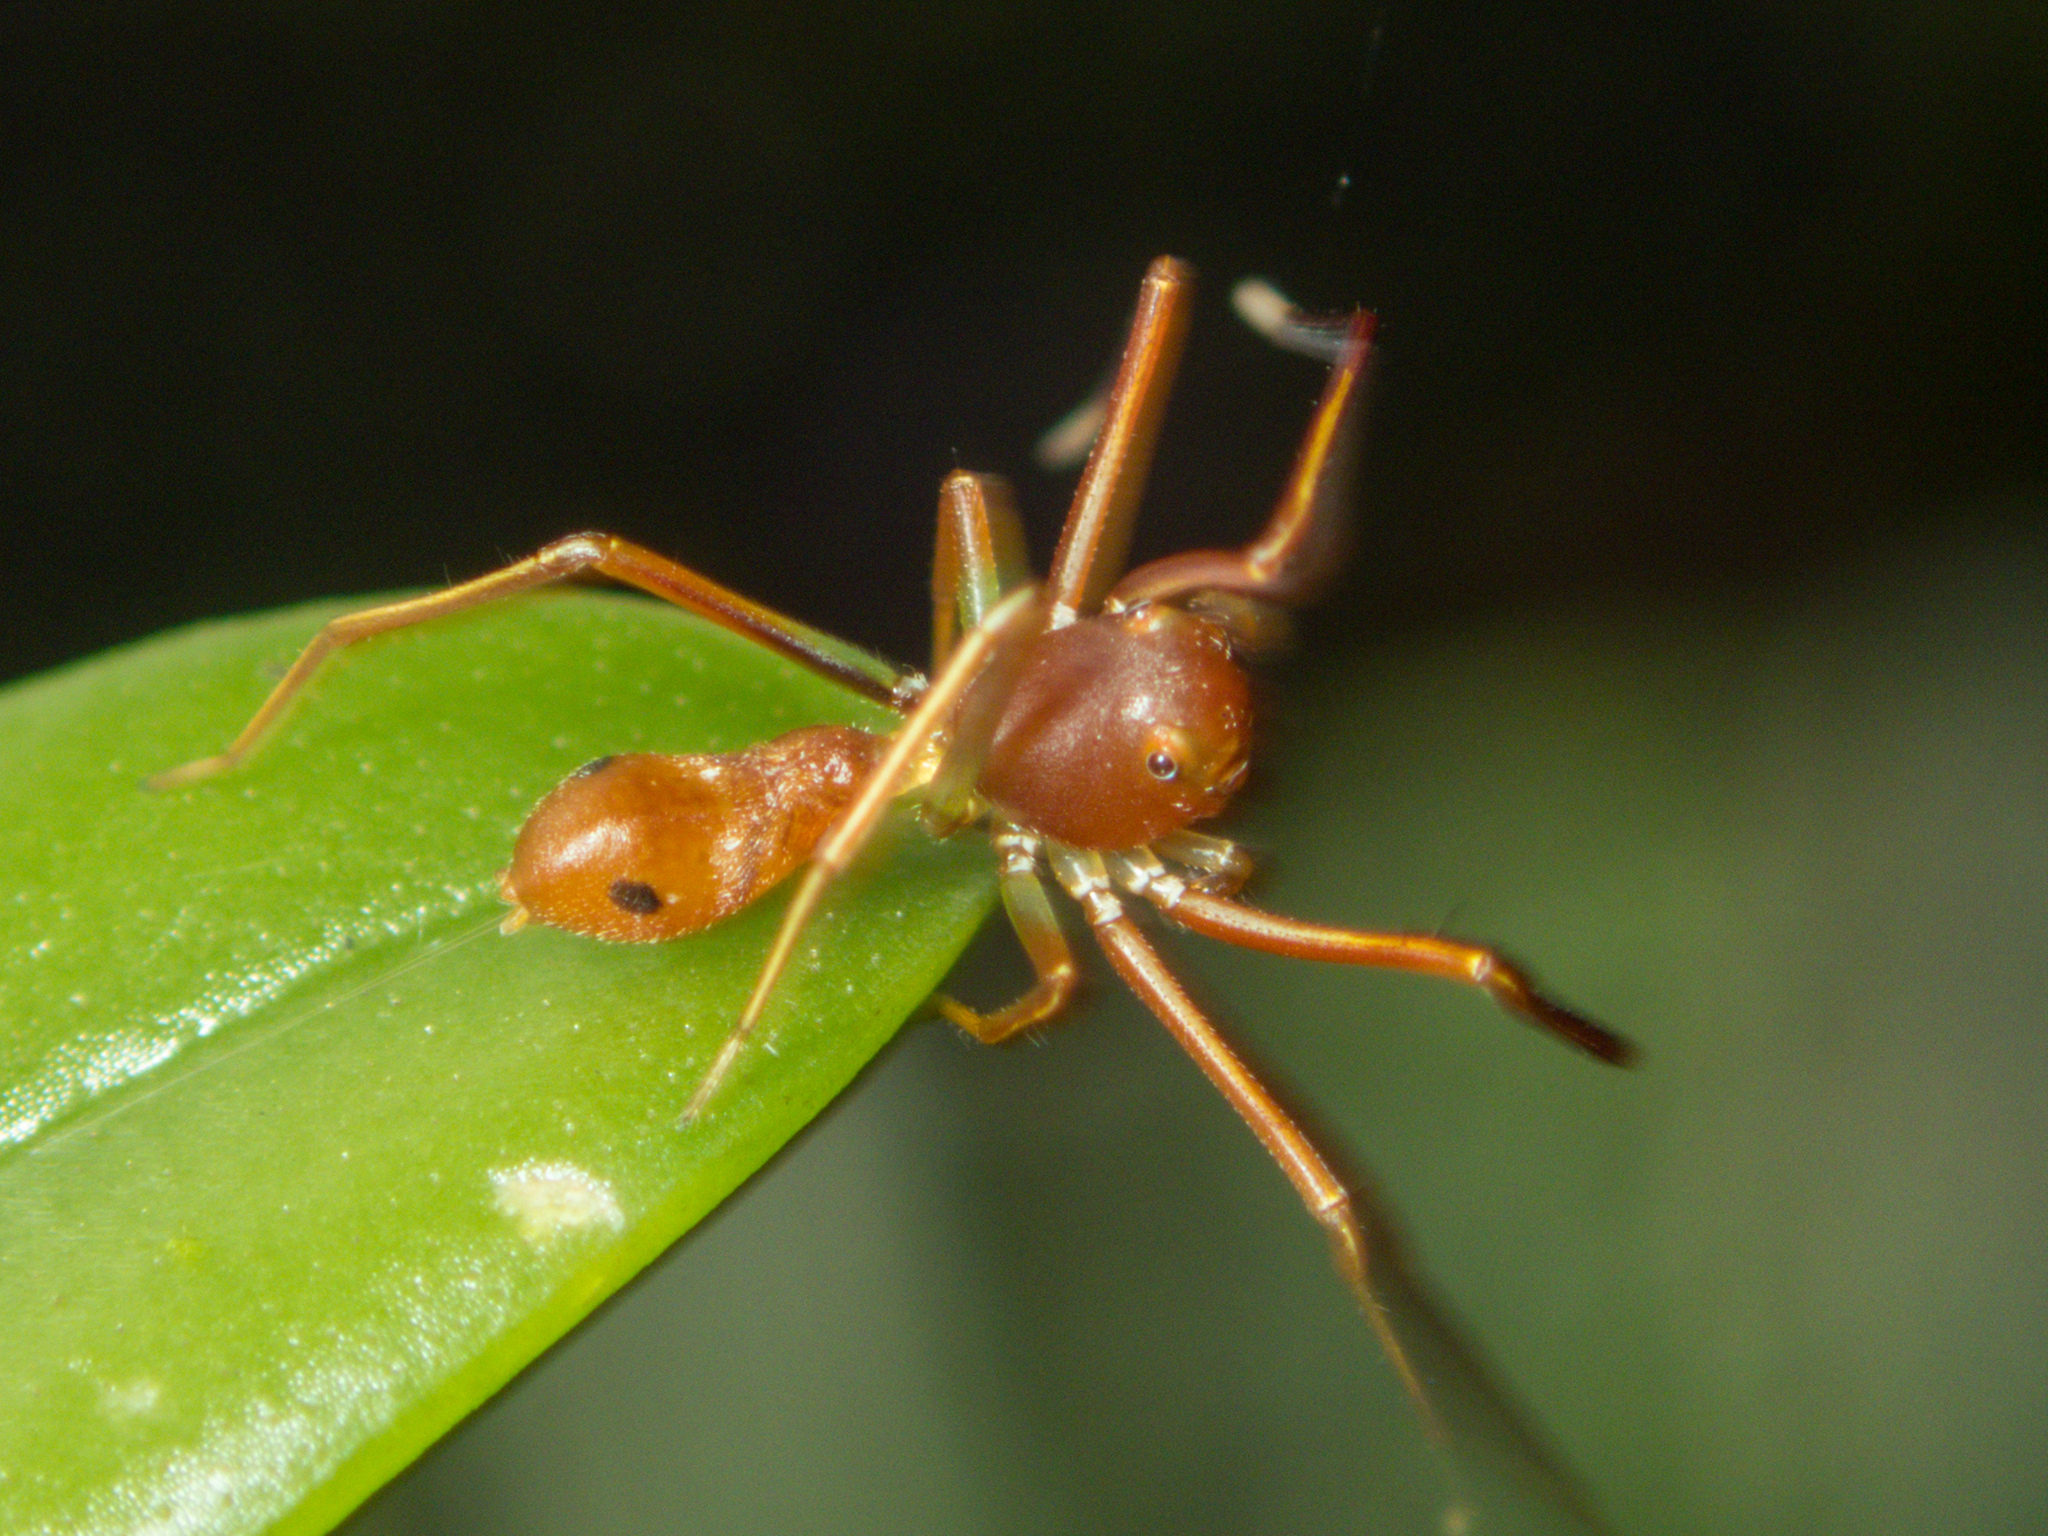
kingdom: Animalia
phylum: Arthropoda
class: Arachnida
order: Araneae
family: Thomisidae
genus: Amyciaea
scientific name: Amyciaea forticeps
